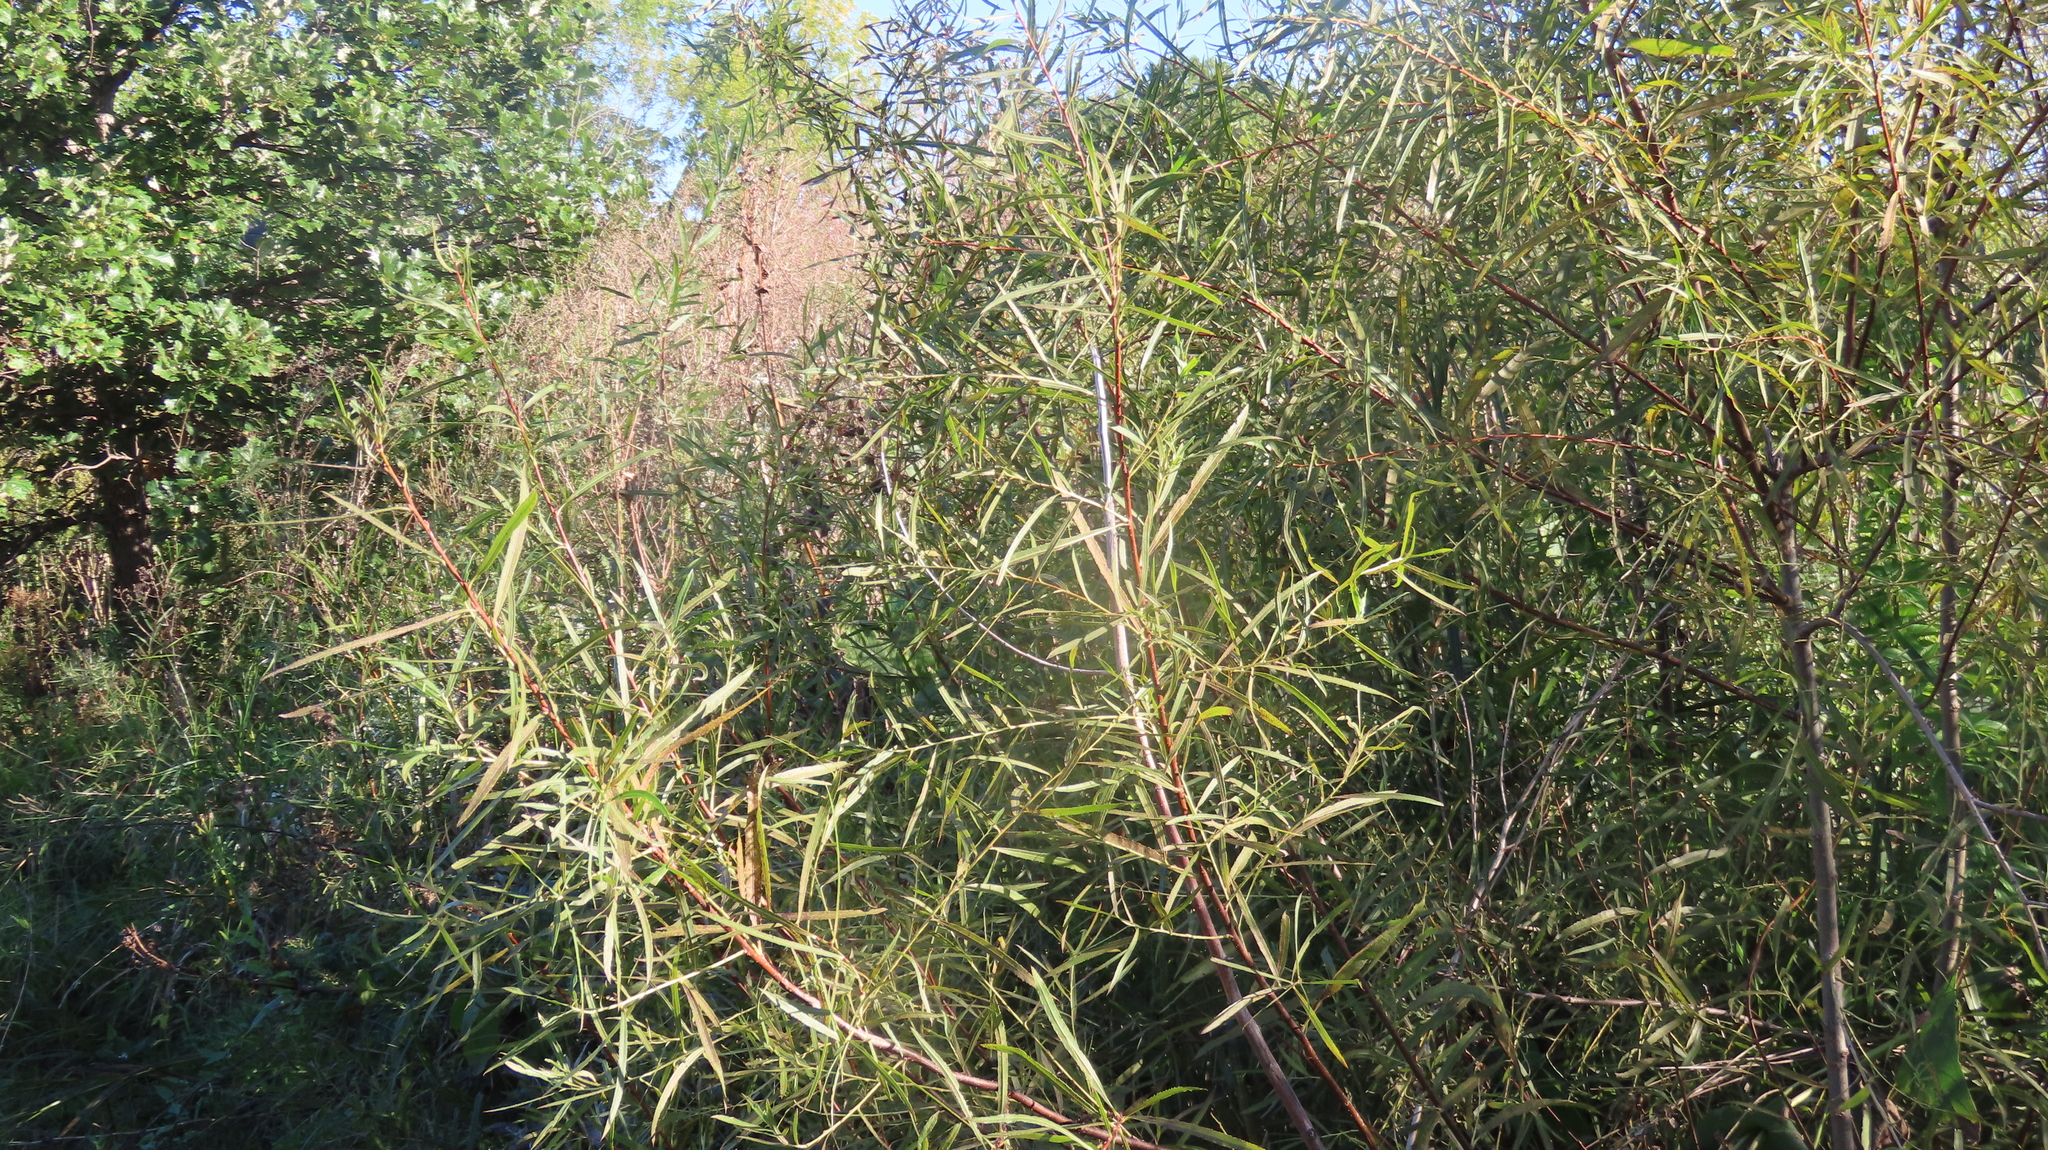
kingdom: Plantae
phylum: Tracheophyta
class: Magnoliopsida
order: Malpighiales
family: Salicaceae
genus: Salix
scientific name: Salix interior
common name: Sandbar willow
